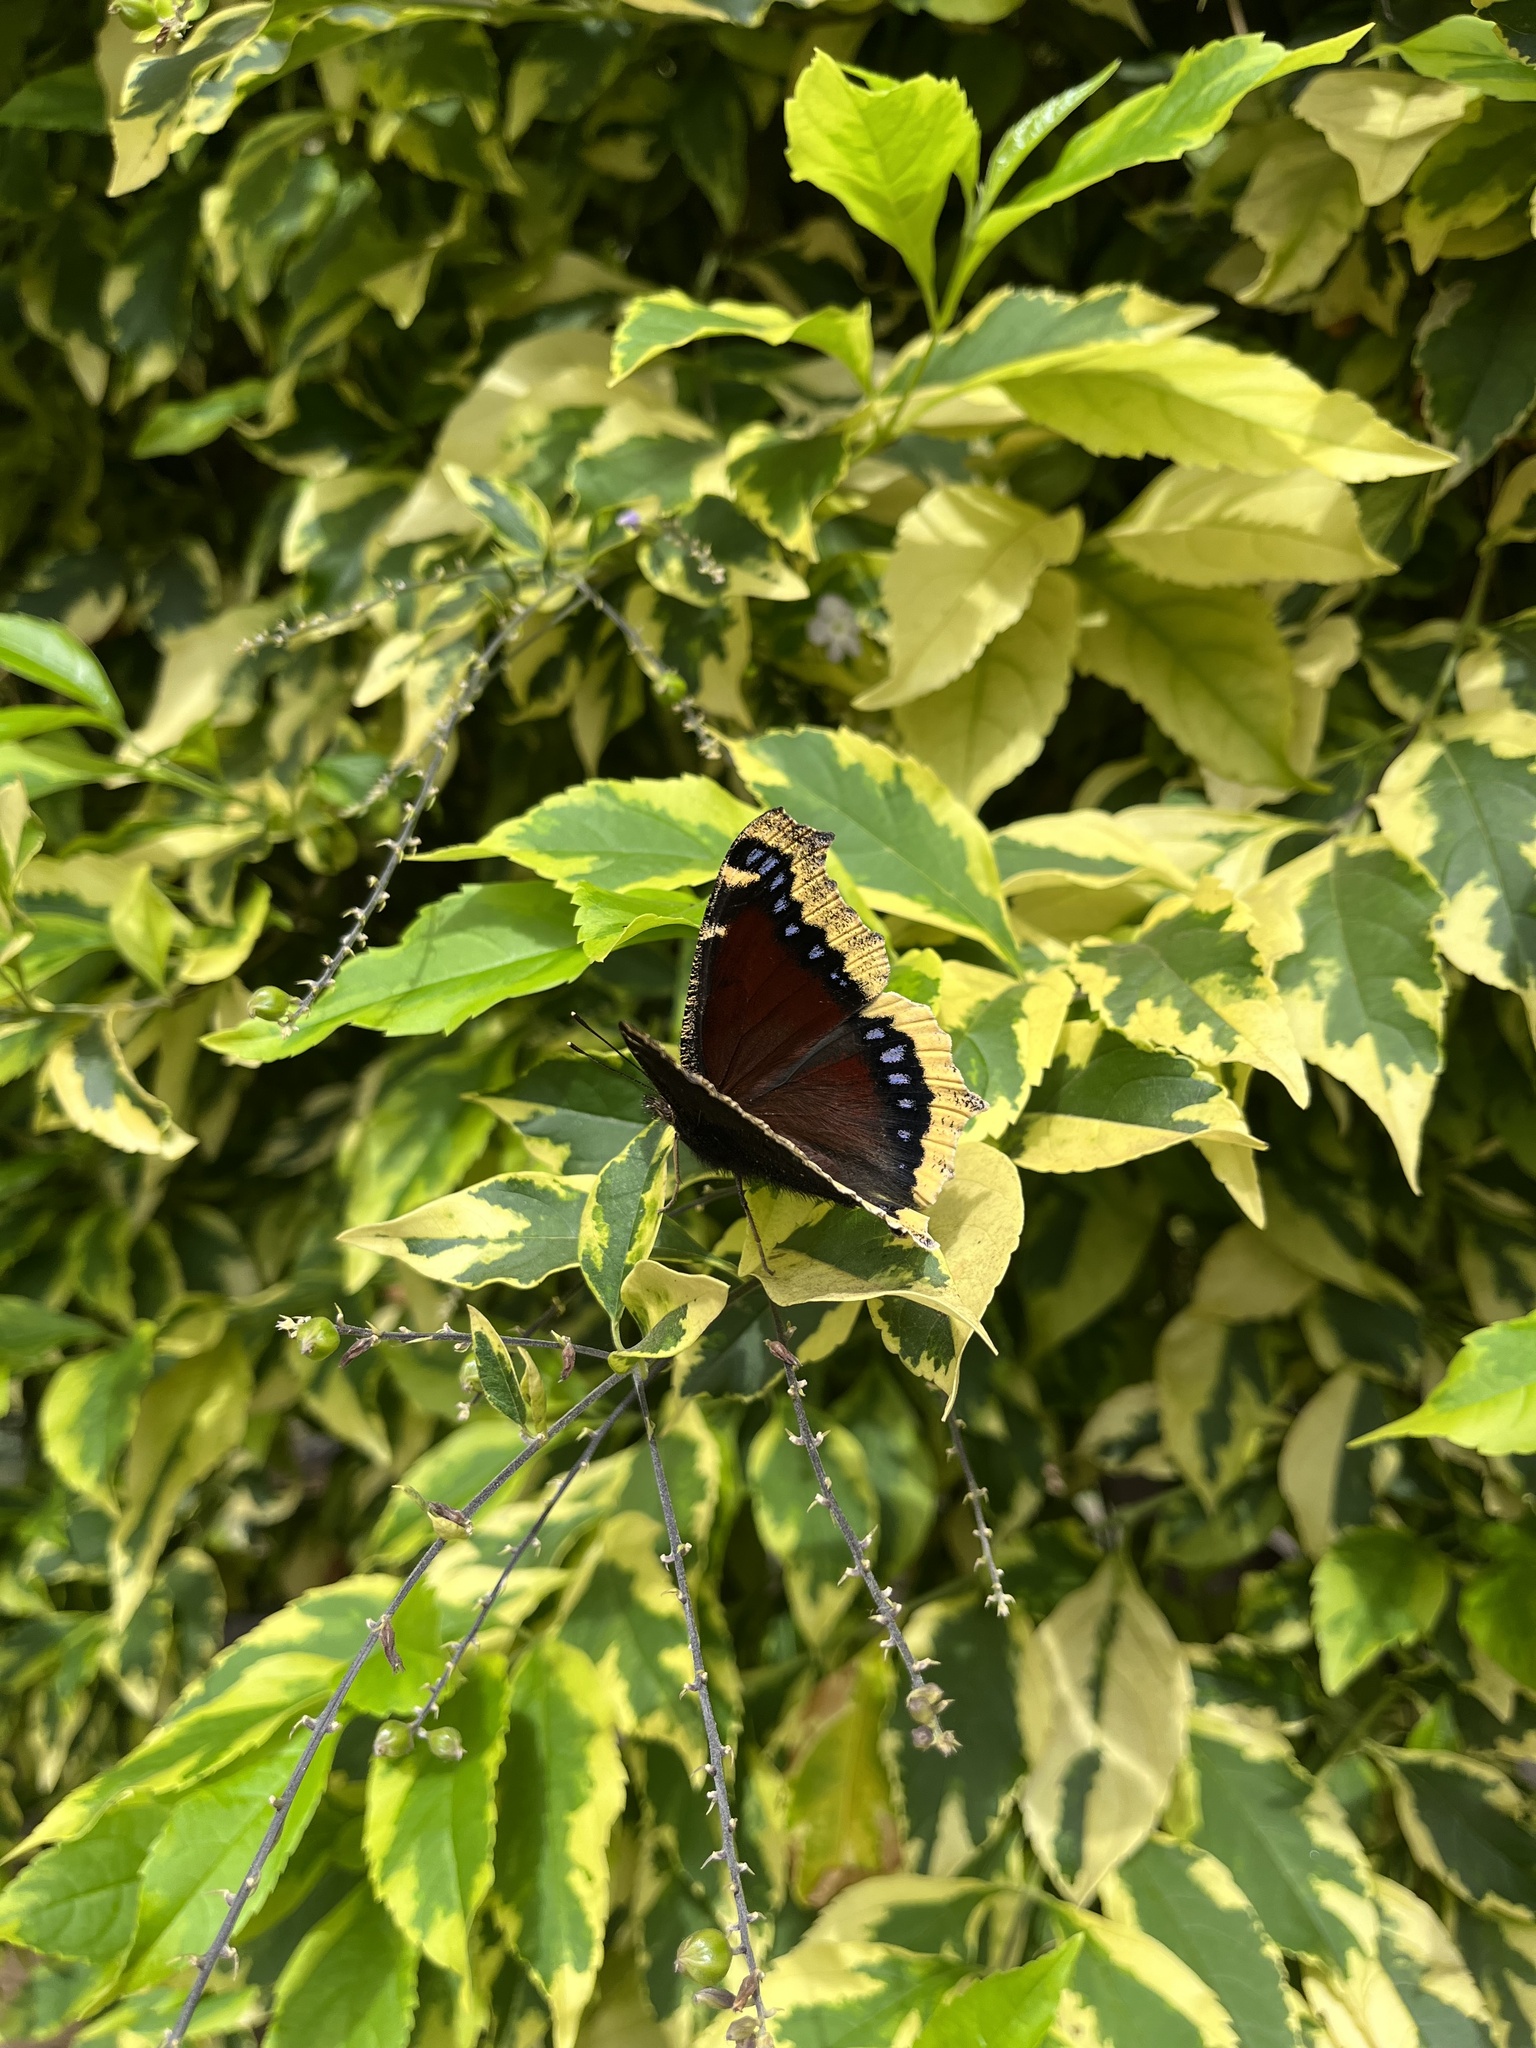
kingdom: Animalia
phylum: Arthropoda
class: Insecta
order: Lepidoptera
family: Nymphalidae
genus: Nymphalis
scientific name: Nymphalis antiopa
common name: Camberwell beauty
